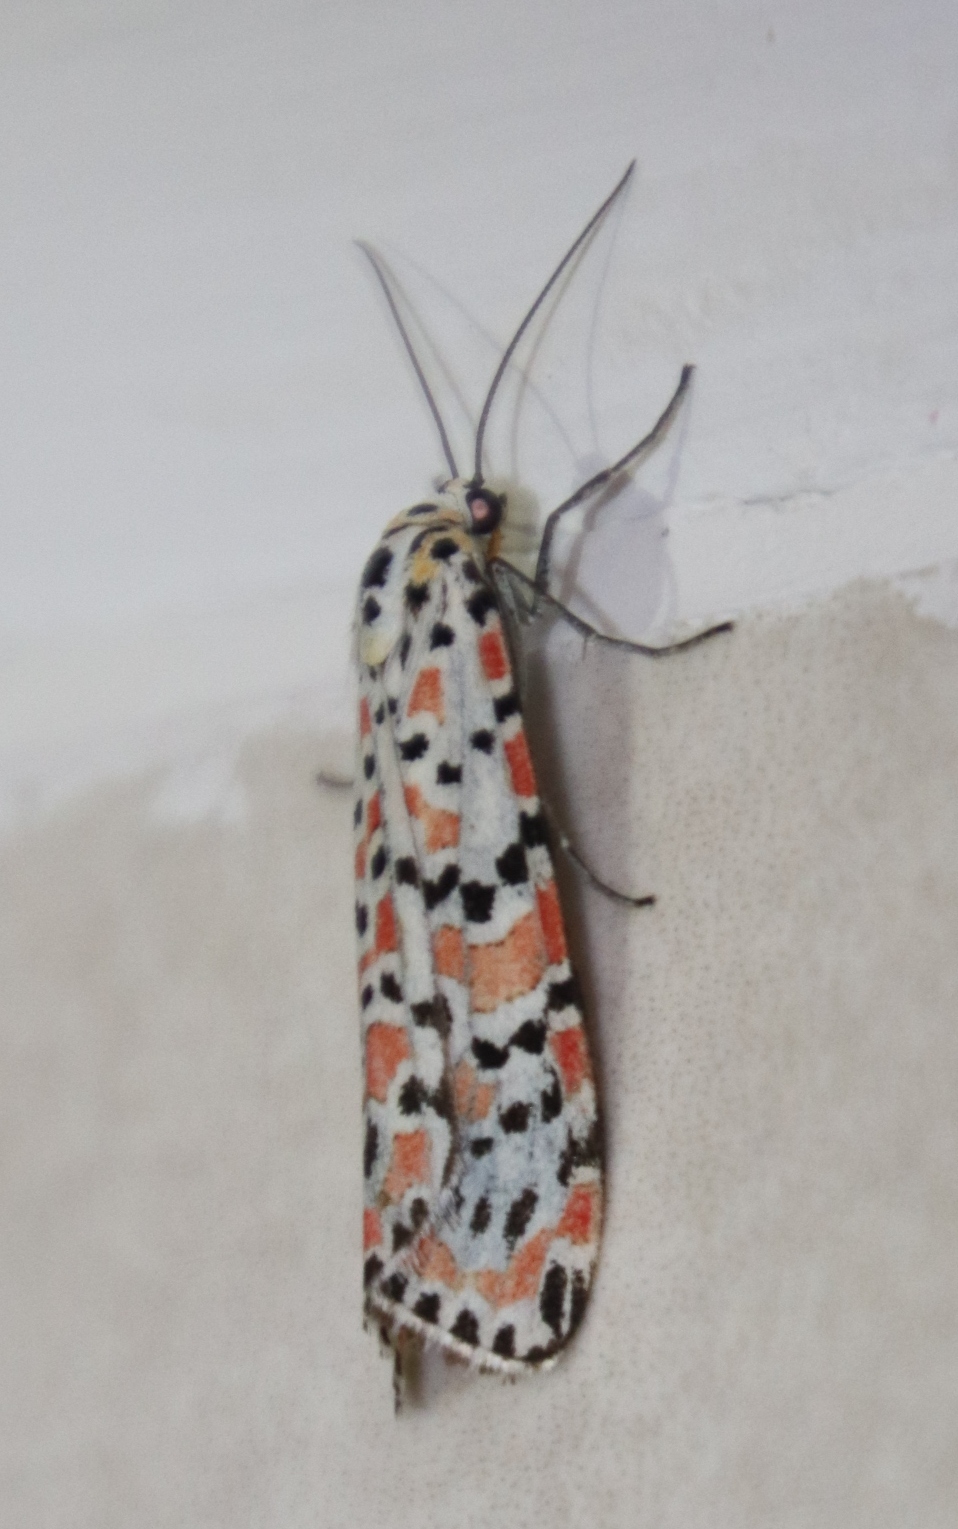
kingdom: Animalia
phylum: Arthropoda
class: Insecta
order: Lepidoptera
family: Erebidae
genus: Utetheisa
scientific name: Utetheisa pulchella
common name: Crimson speckled
